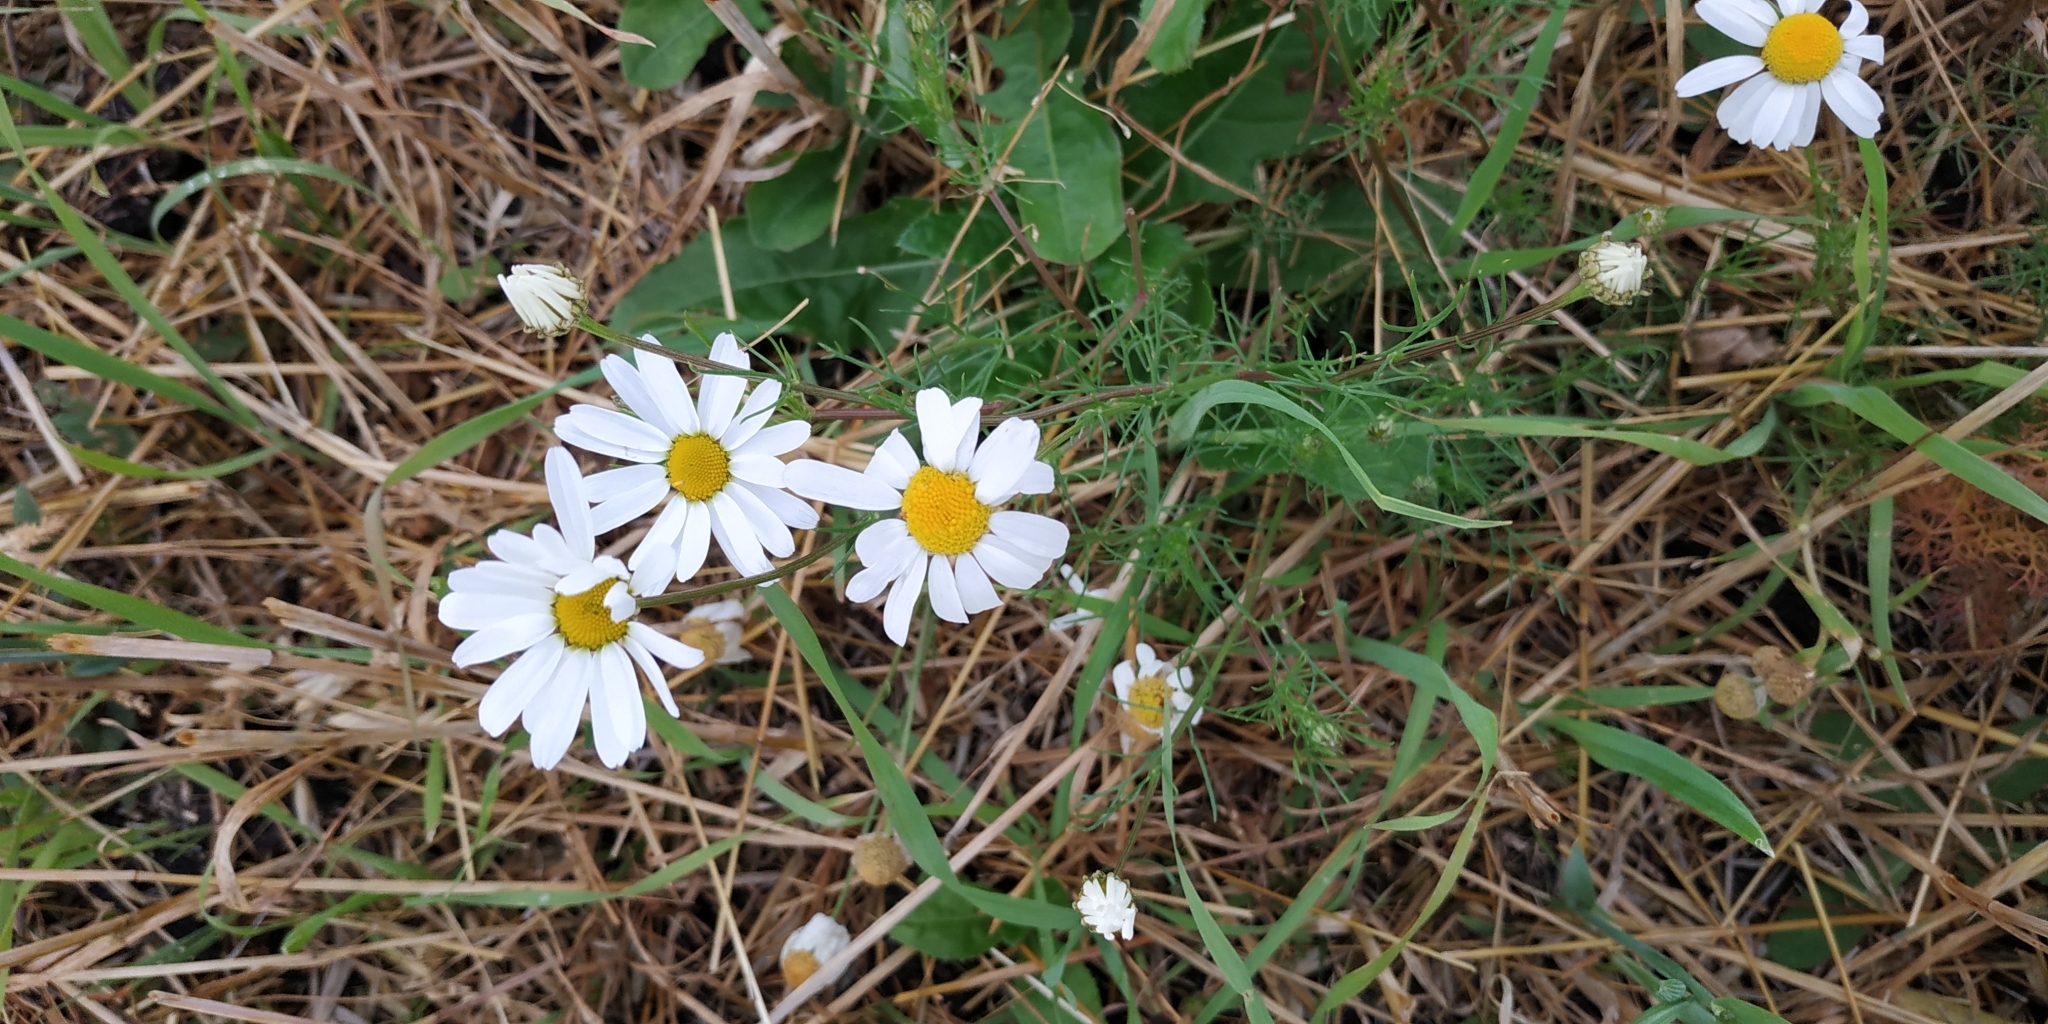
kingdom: Plantae
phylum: Tracheophyta
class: Magnoliopsida
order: Asterales
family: Asteraceae
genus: Tripleurospermum
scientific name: Tripleurospermum inodorum
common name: Scentless mayweed
